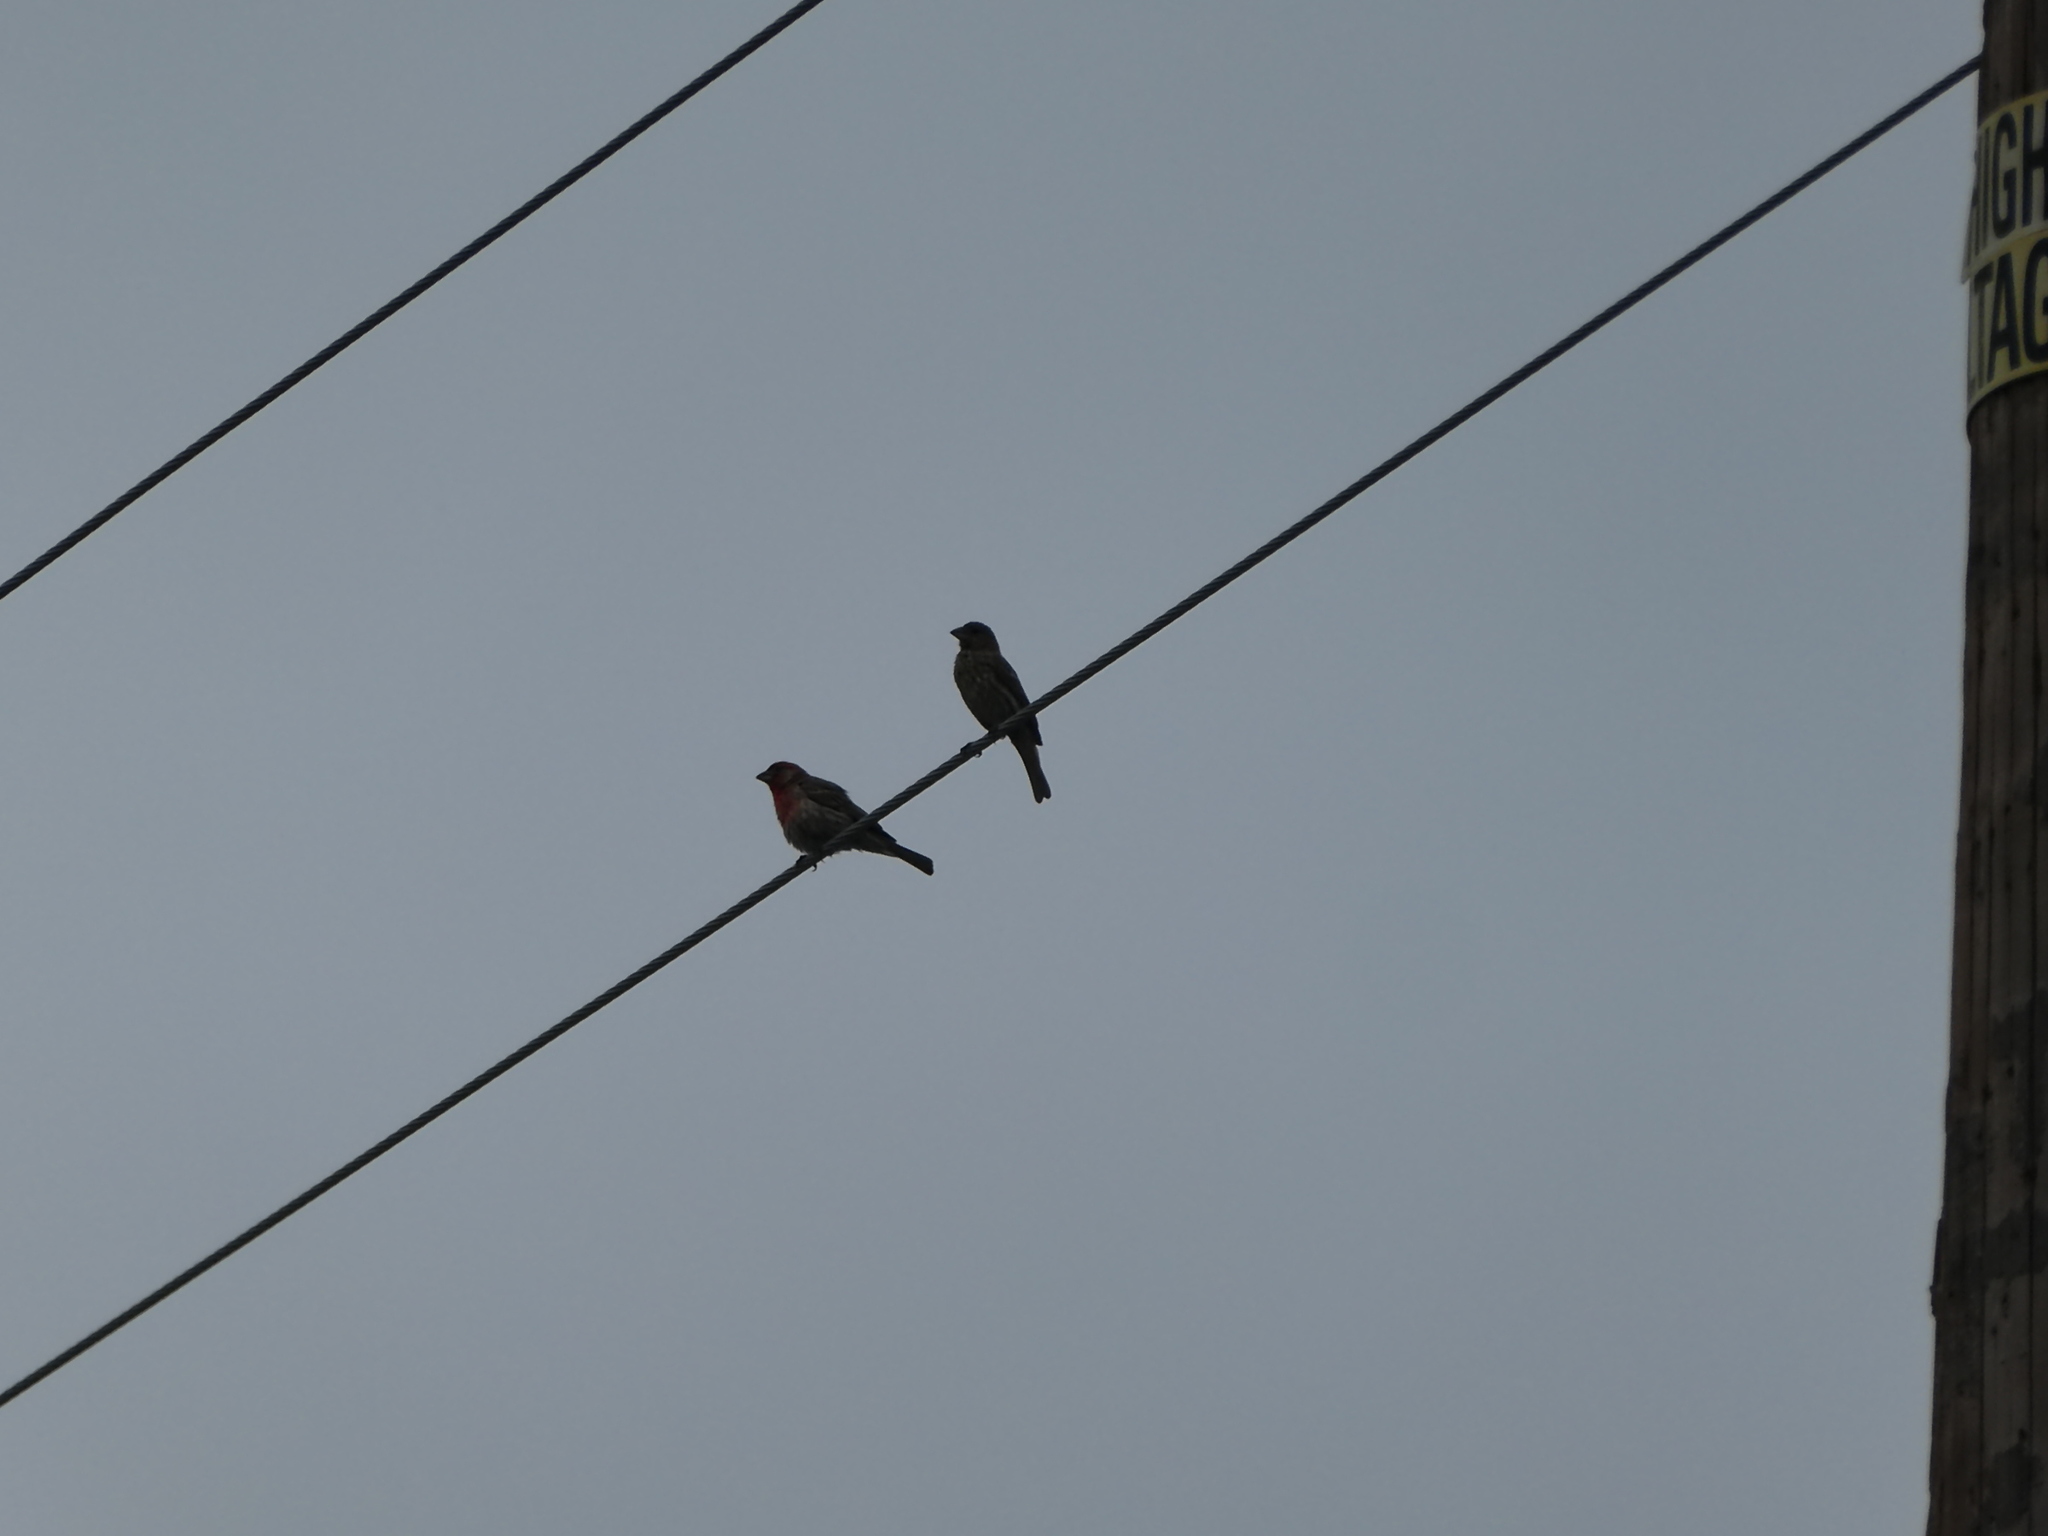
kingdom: Animalia
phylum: Chordata
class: Aves
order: Passeriformes
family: Fringillidae
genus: Haemorhous
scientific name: Haemorhous mexicanus
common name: House finch
